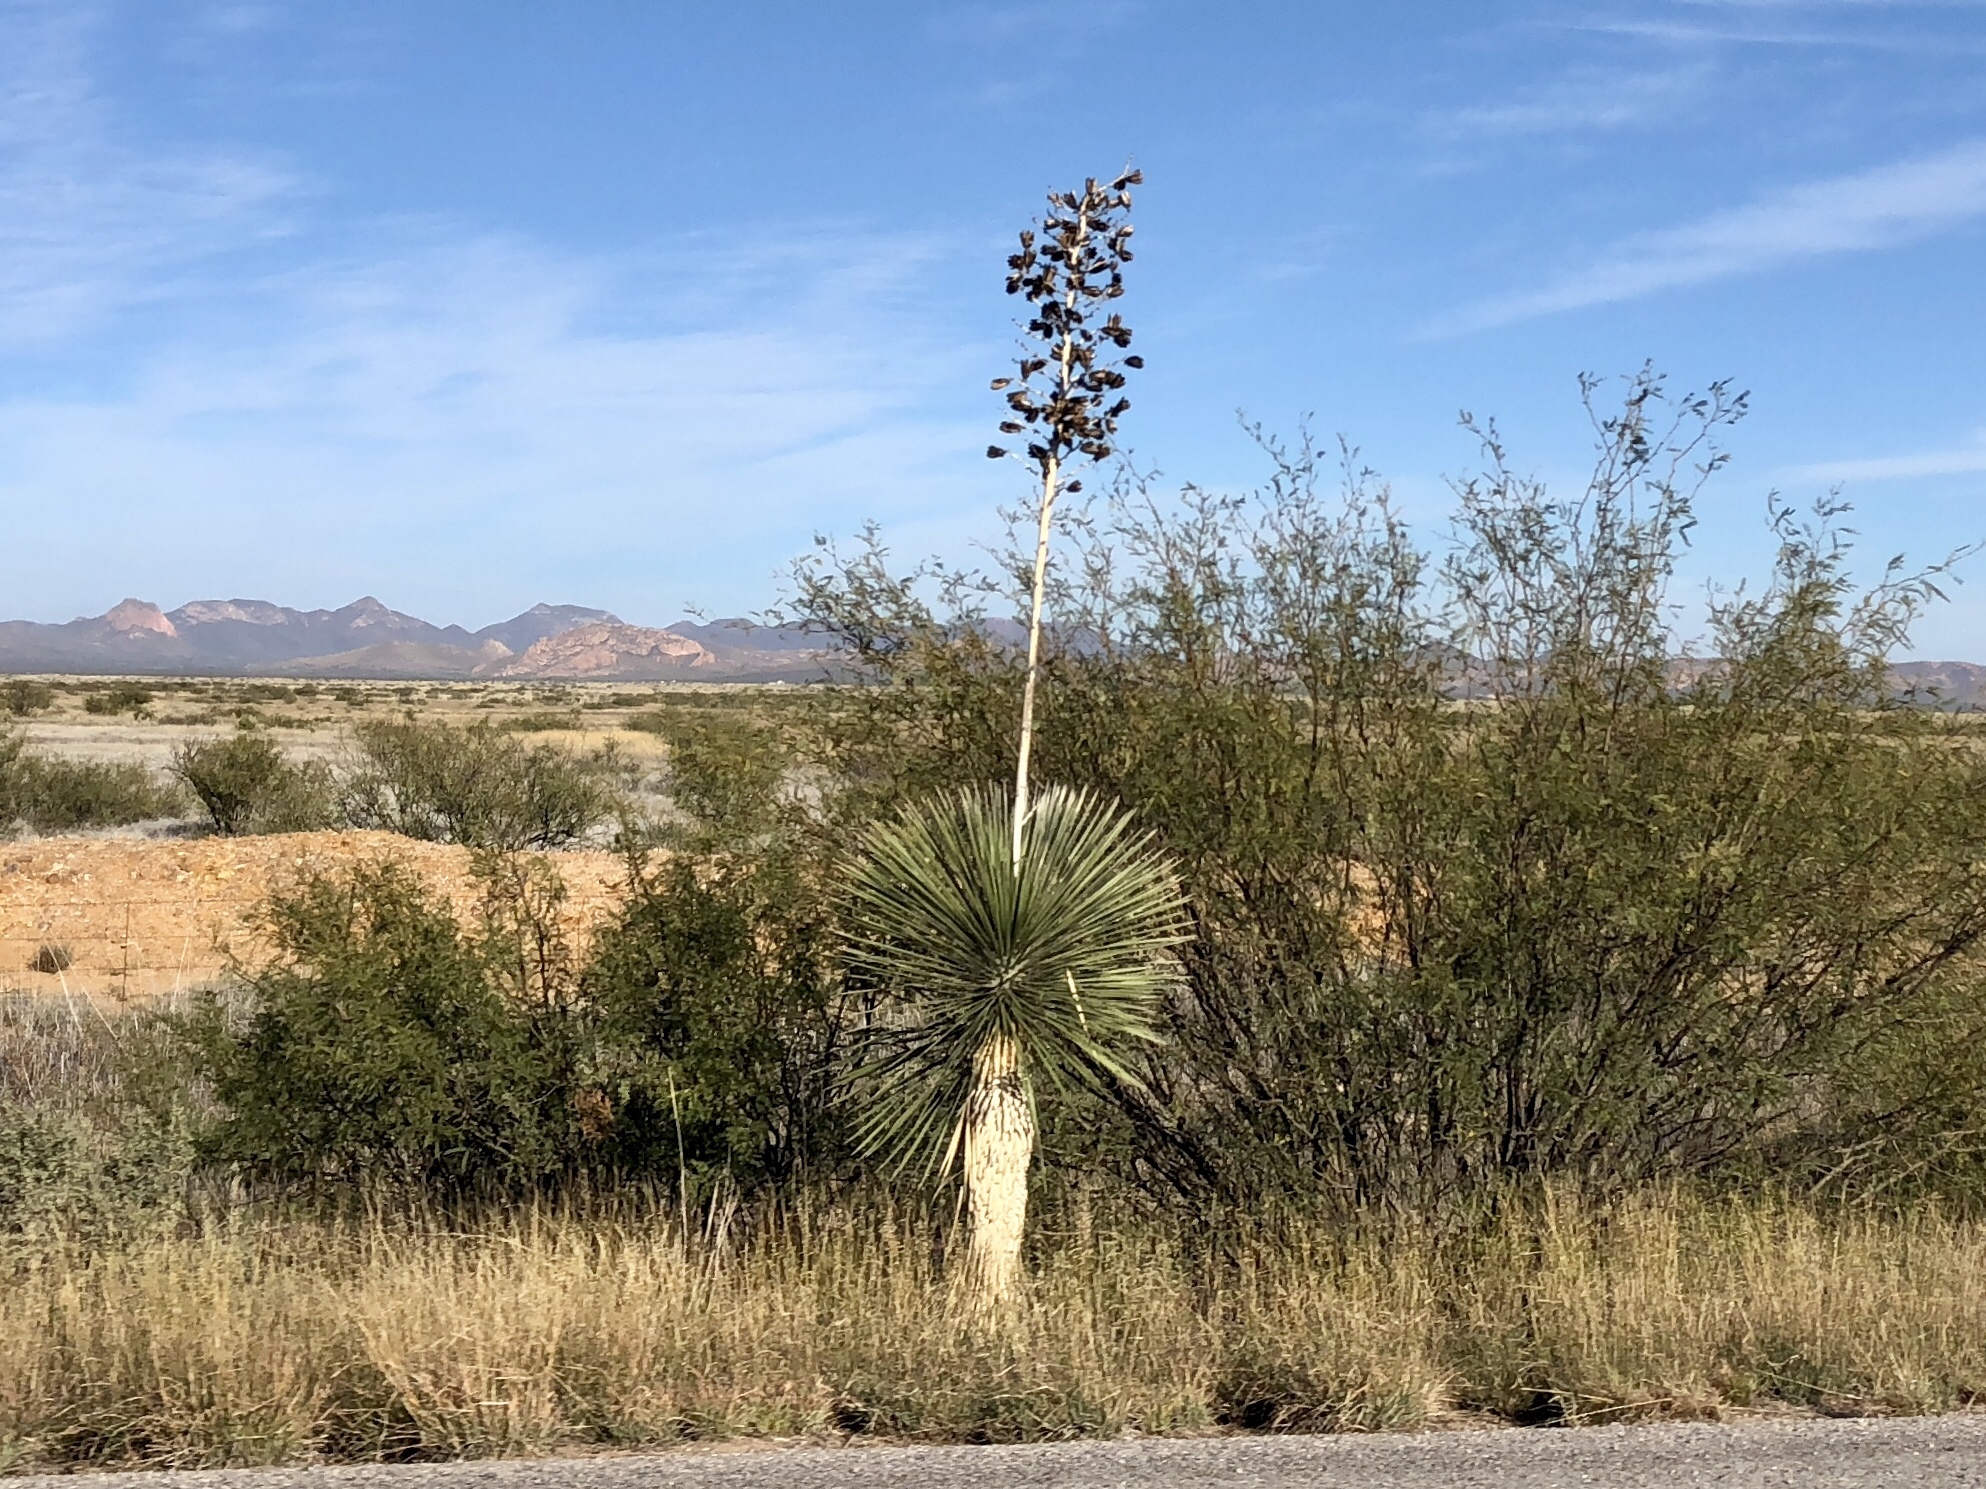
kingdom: Plantae
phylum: Tracheophyta
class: Liliopsida
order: Asparagales
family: Asparagaceae
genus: Yucca
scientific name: Yucca elata
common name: Palmella
